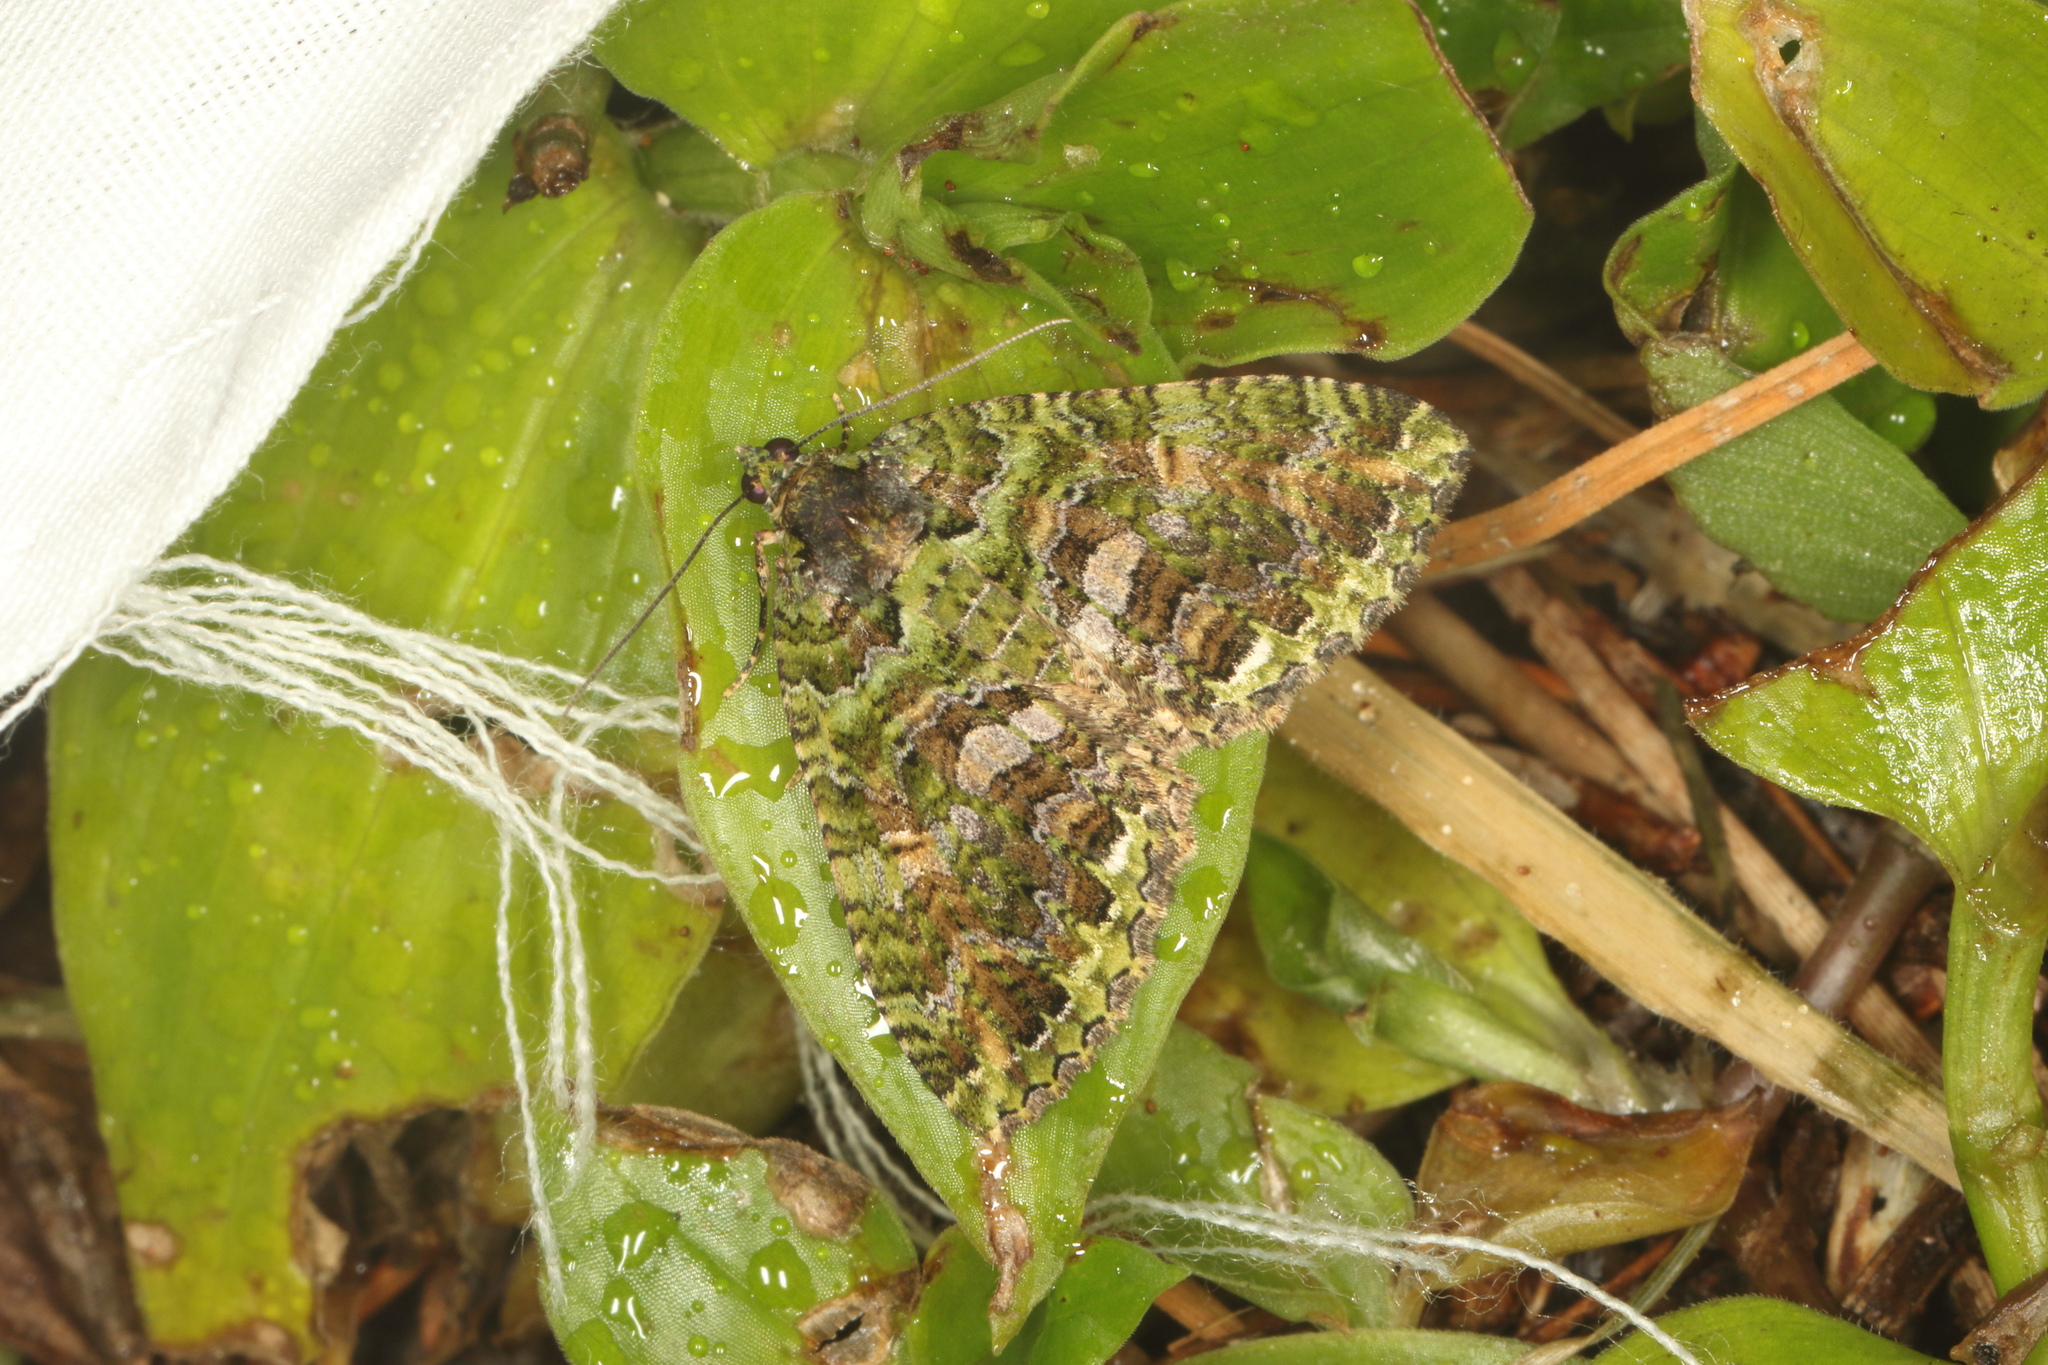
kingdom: Animalia
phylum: Arthropoda
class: Insecta
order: Lepidoptera
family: Geometridae
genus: Austrocidaria
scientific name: Austrocidaria similata
